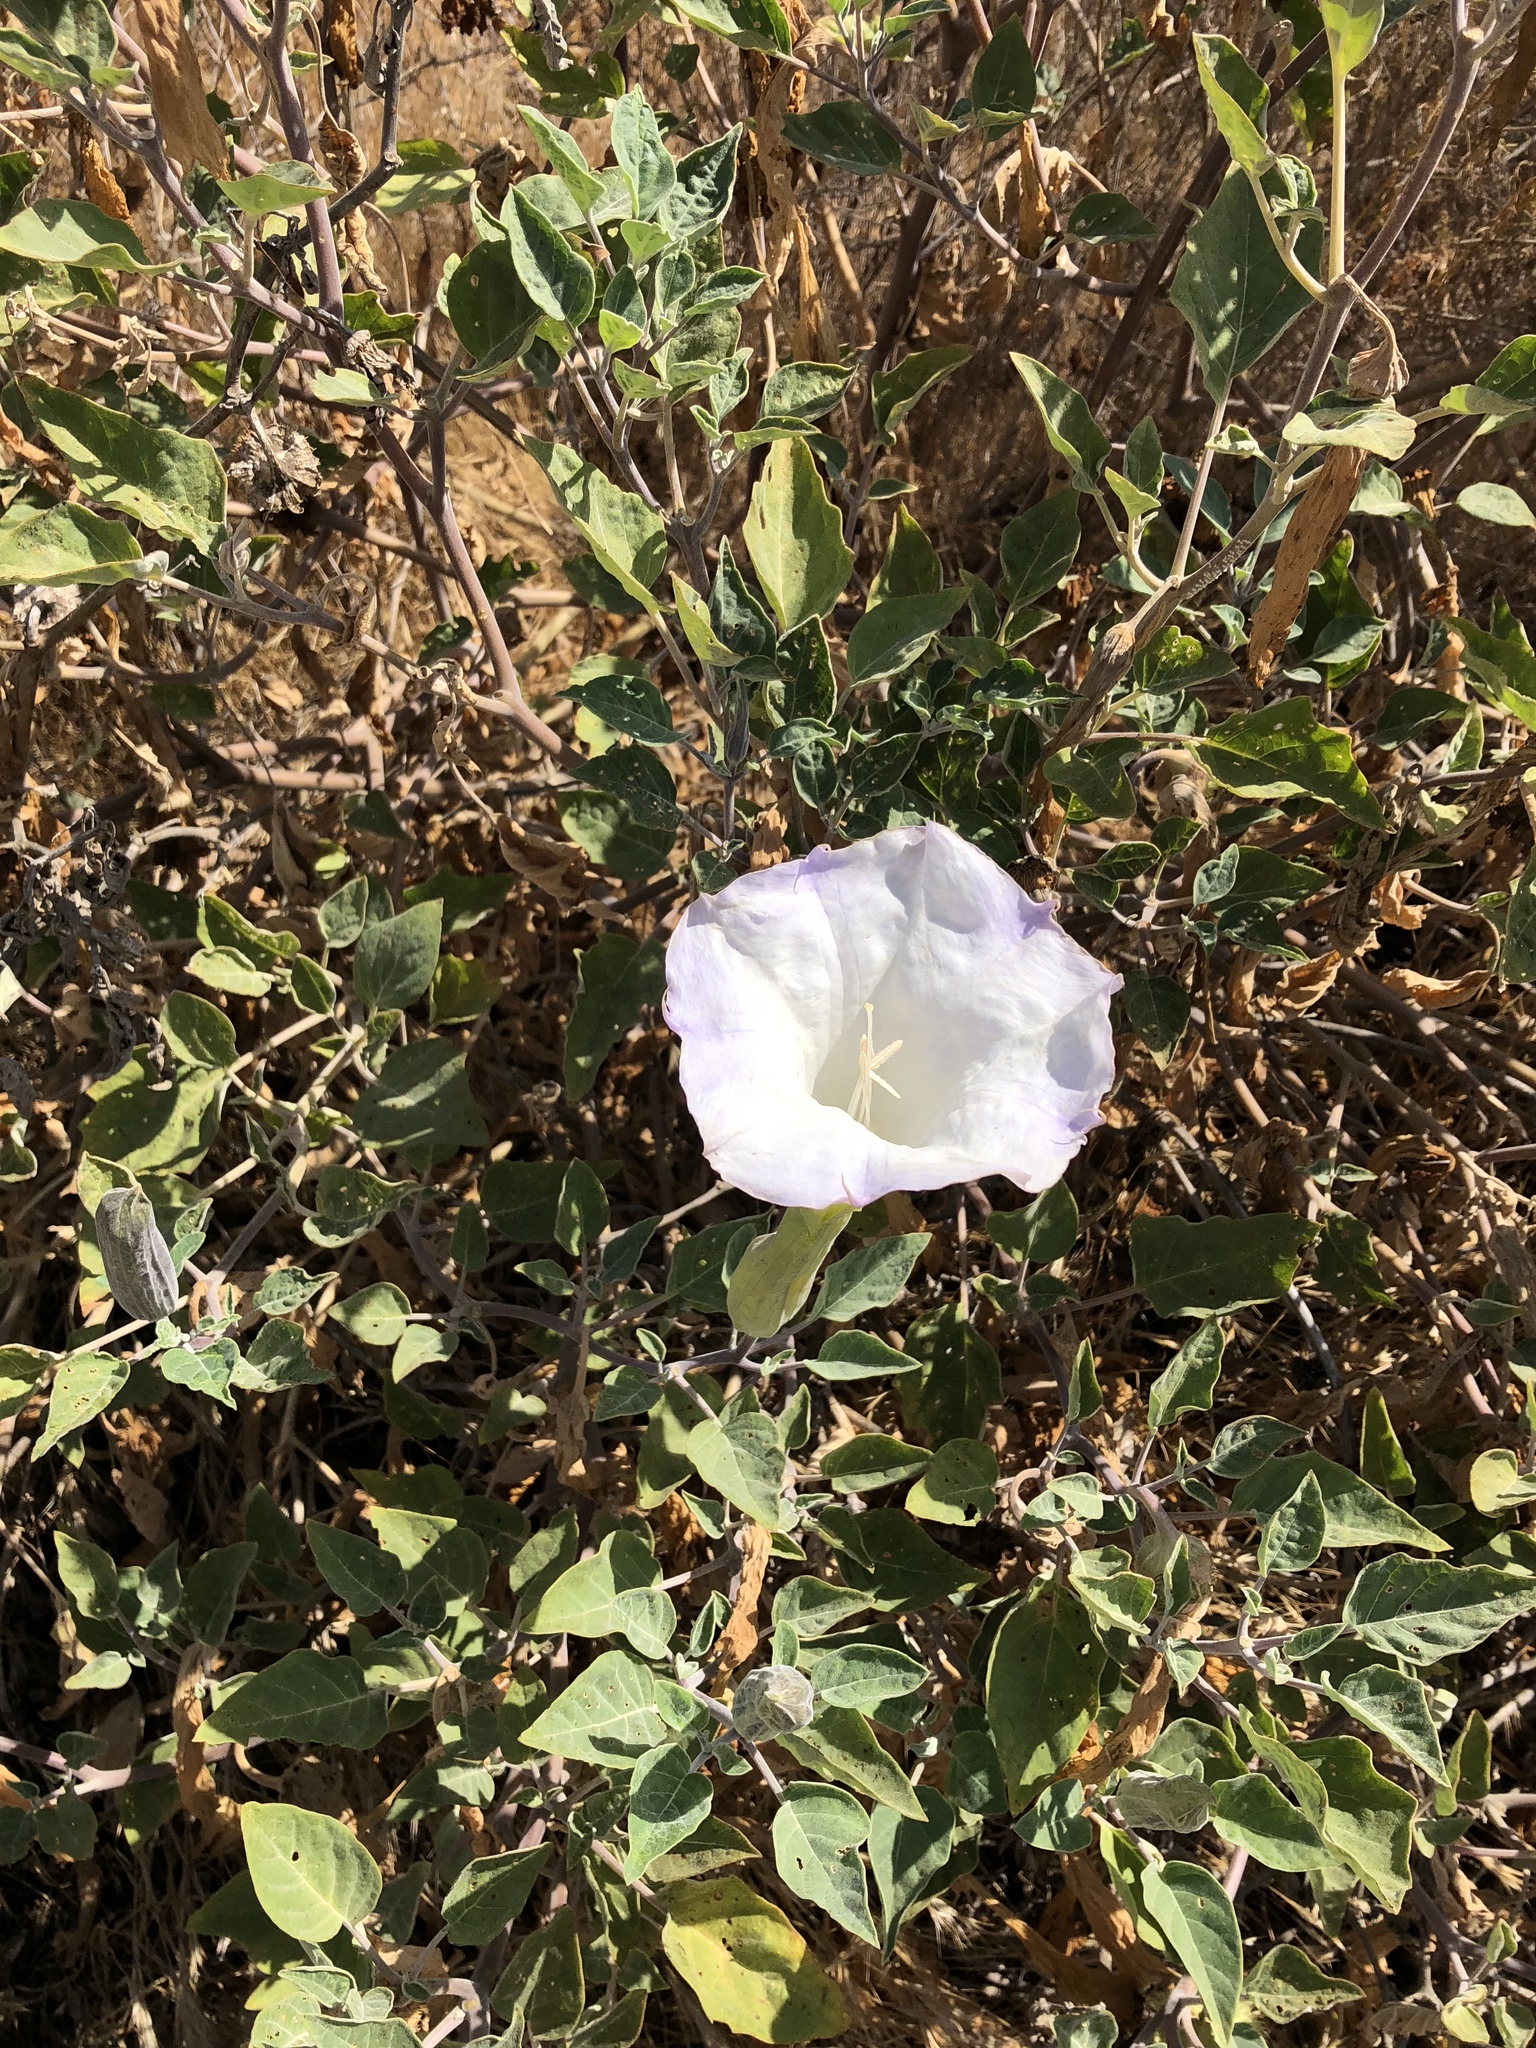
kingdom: Plantae
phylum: Tracheophyta
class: Magnoliopsida
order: Solanales
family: Solanaceae
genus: Datura
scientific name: Datura wrightii
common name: Sacred thorn-apple
